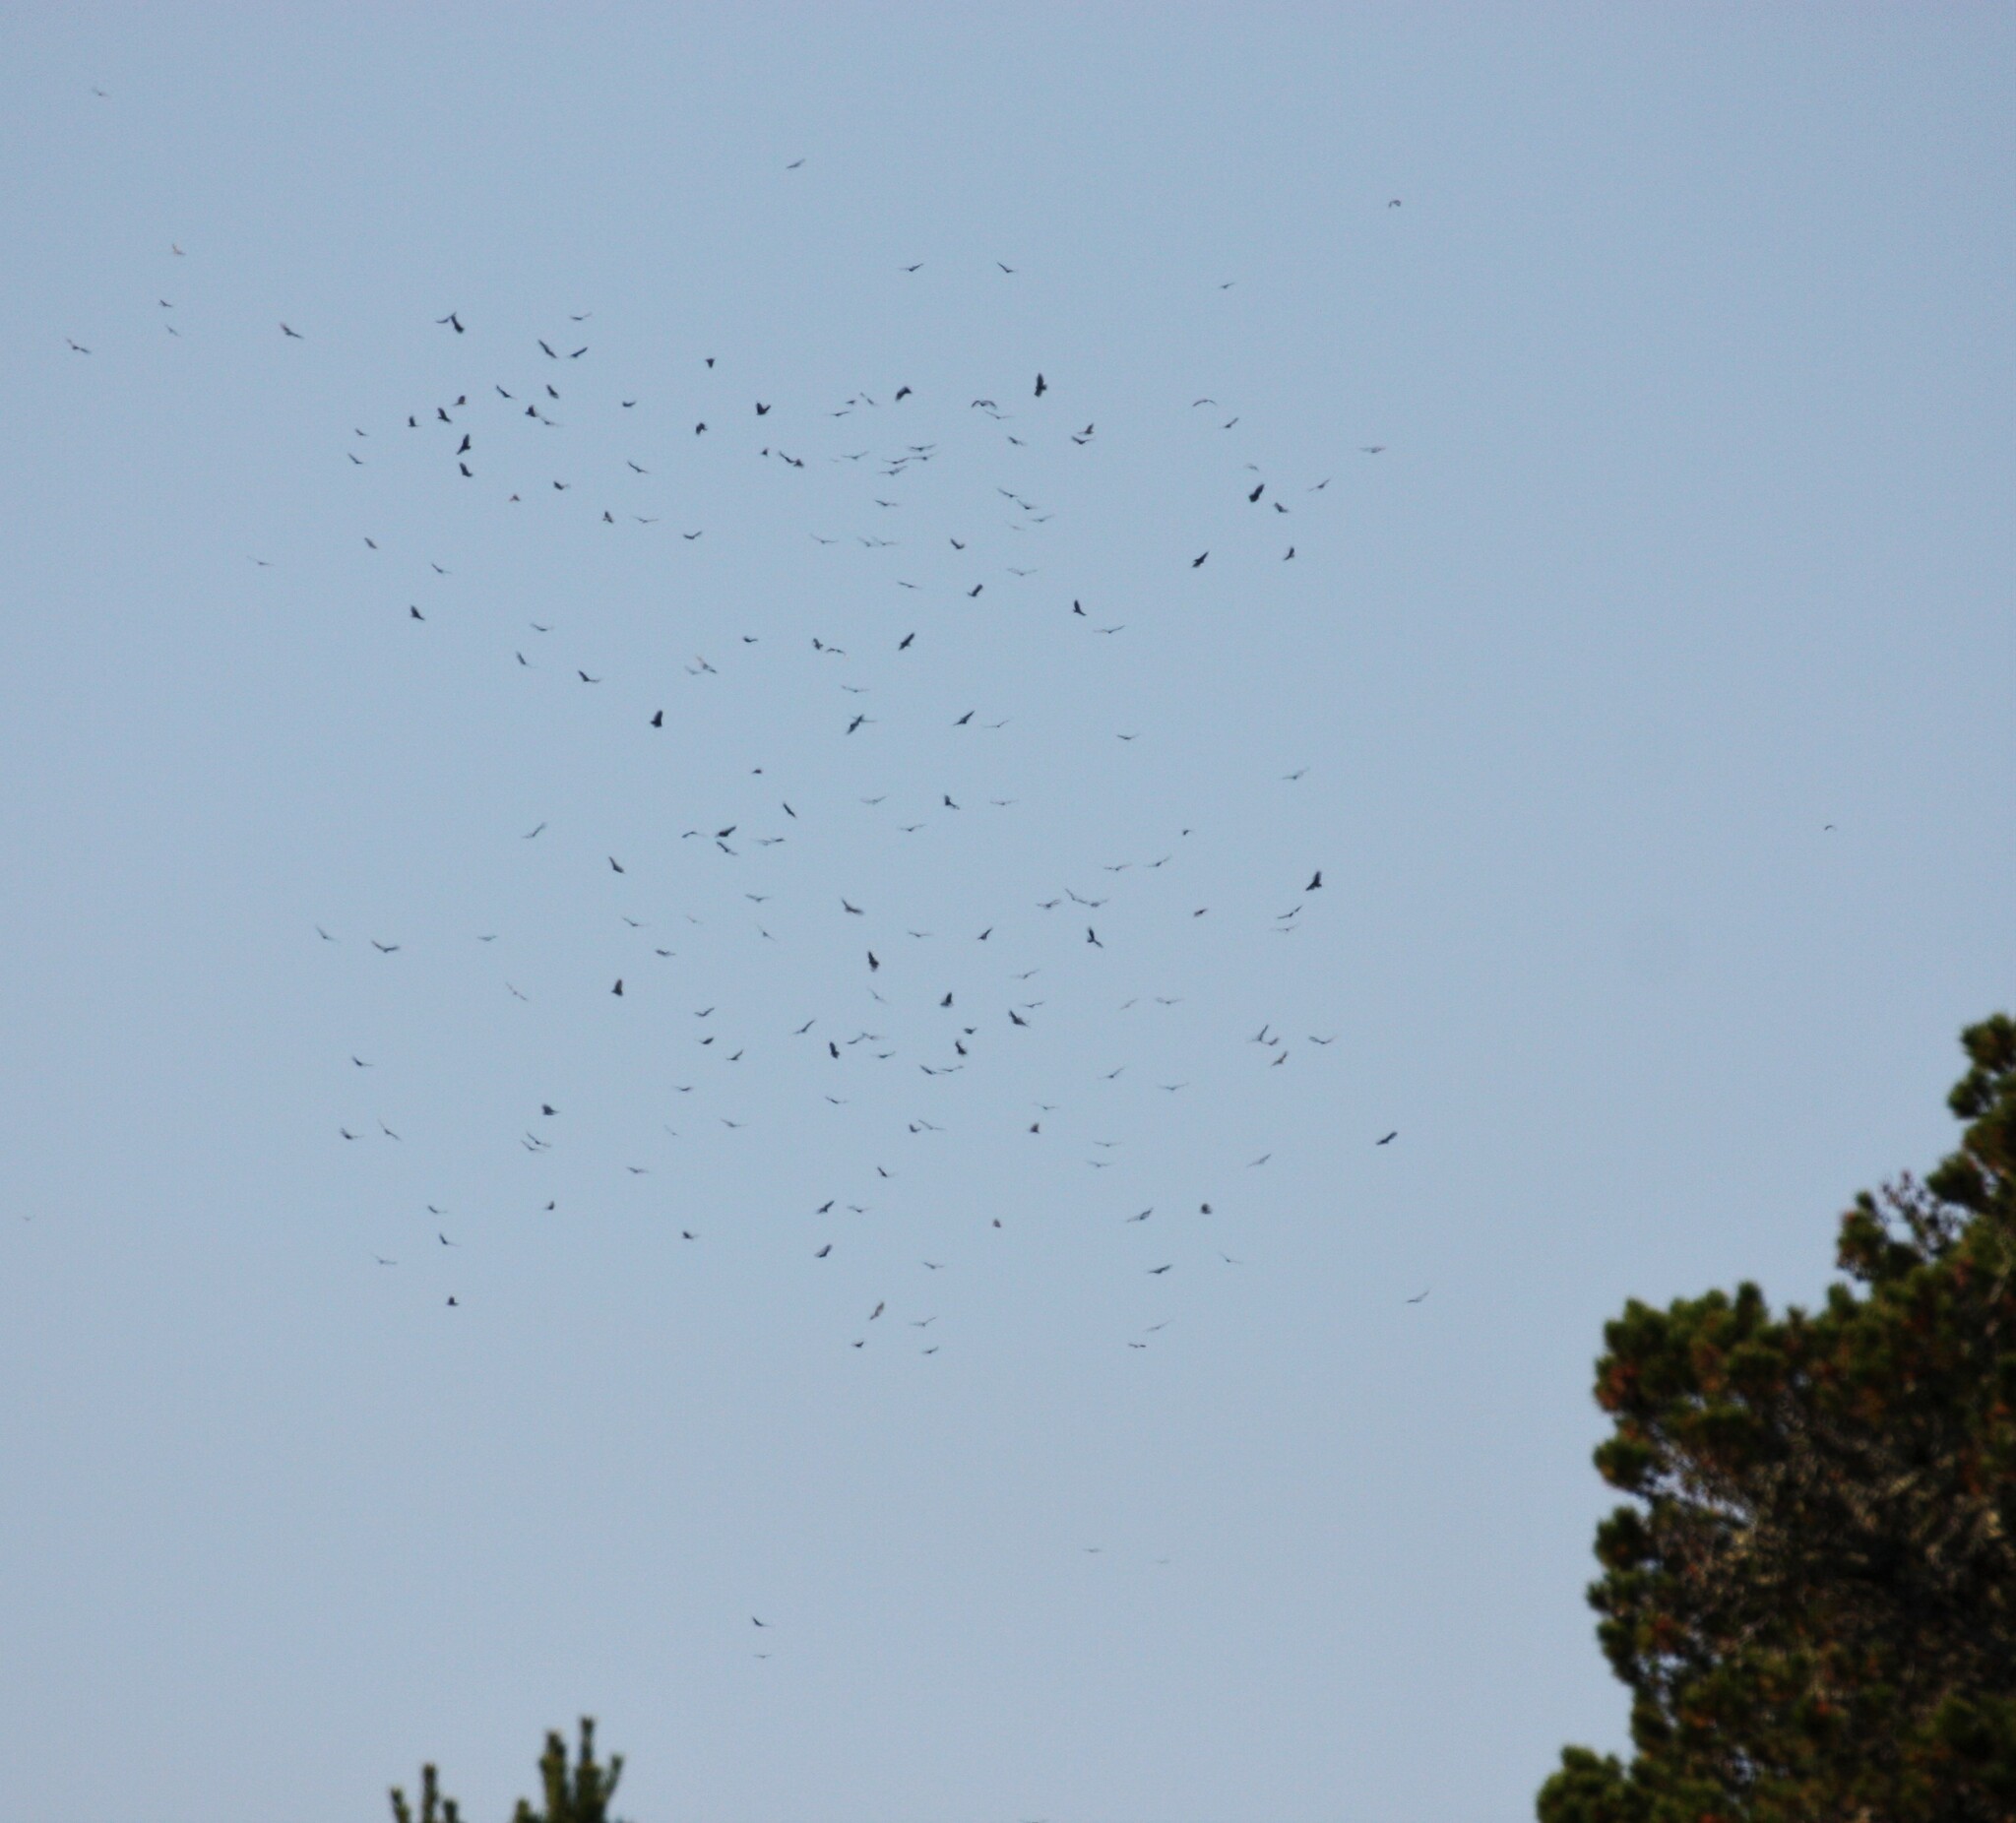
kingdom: Animalia
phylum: Chordata
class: Aves
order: Accipitriformes
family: Cathartidae
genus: Cathartes
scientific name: Cathartes aura
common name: Turkey vulture
